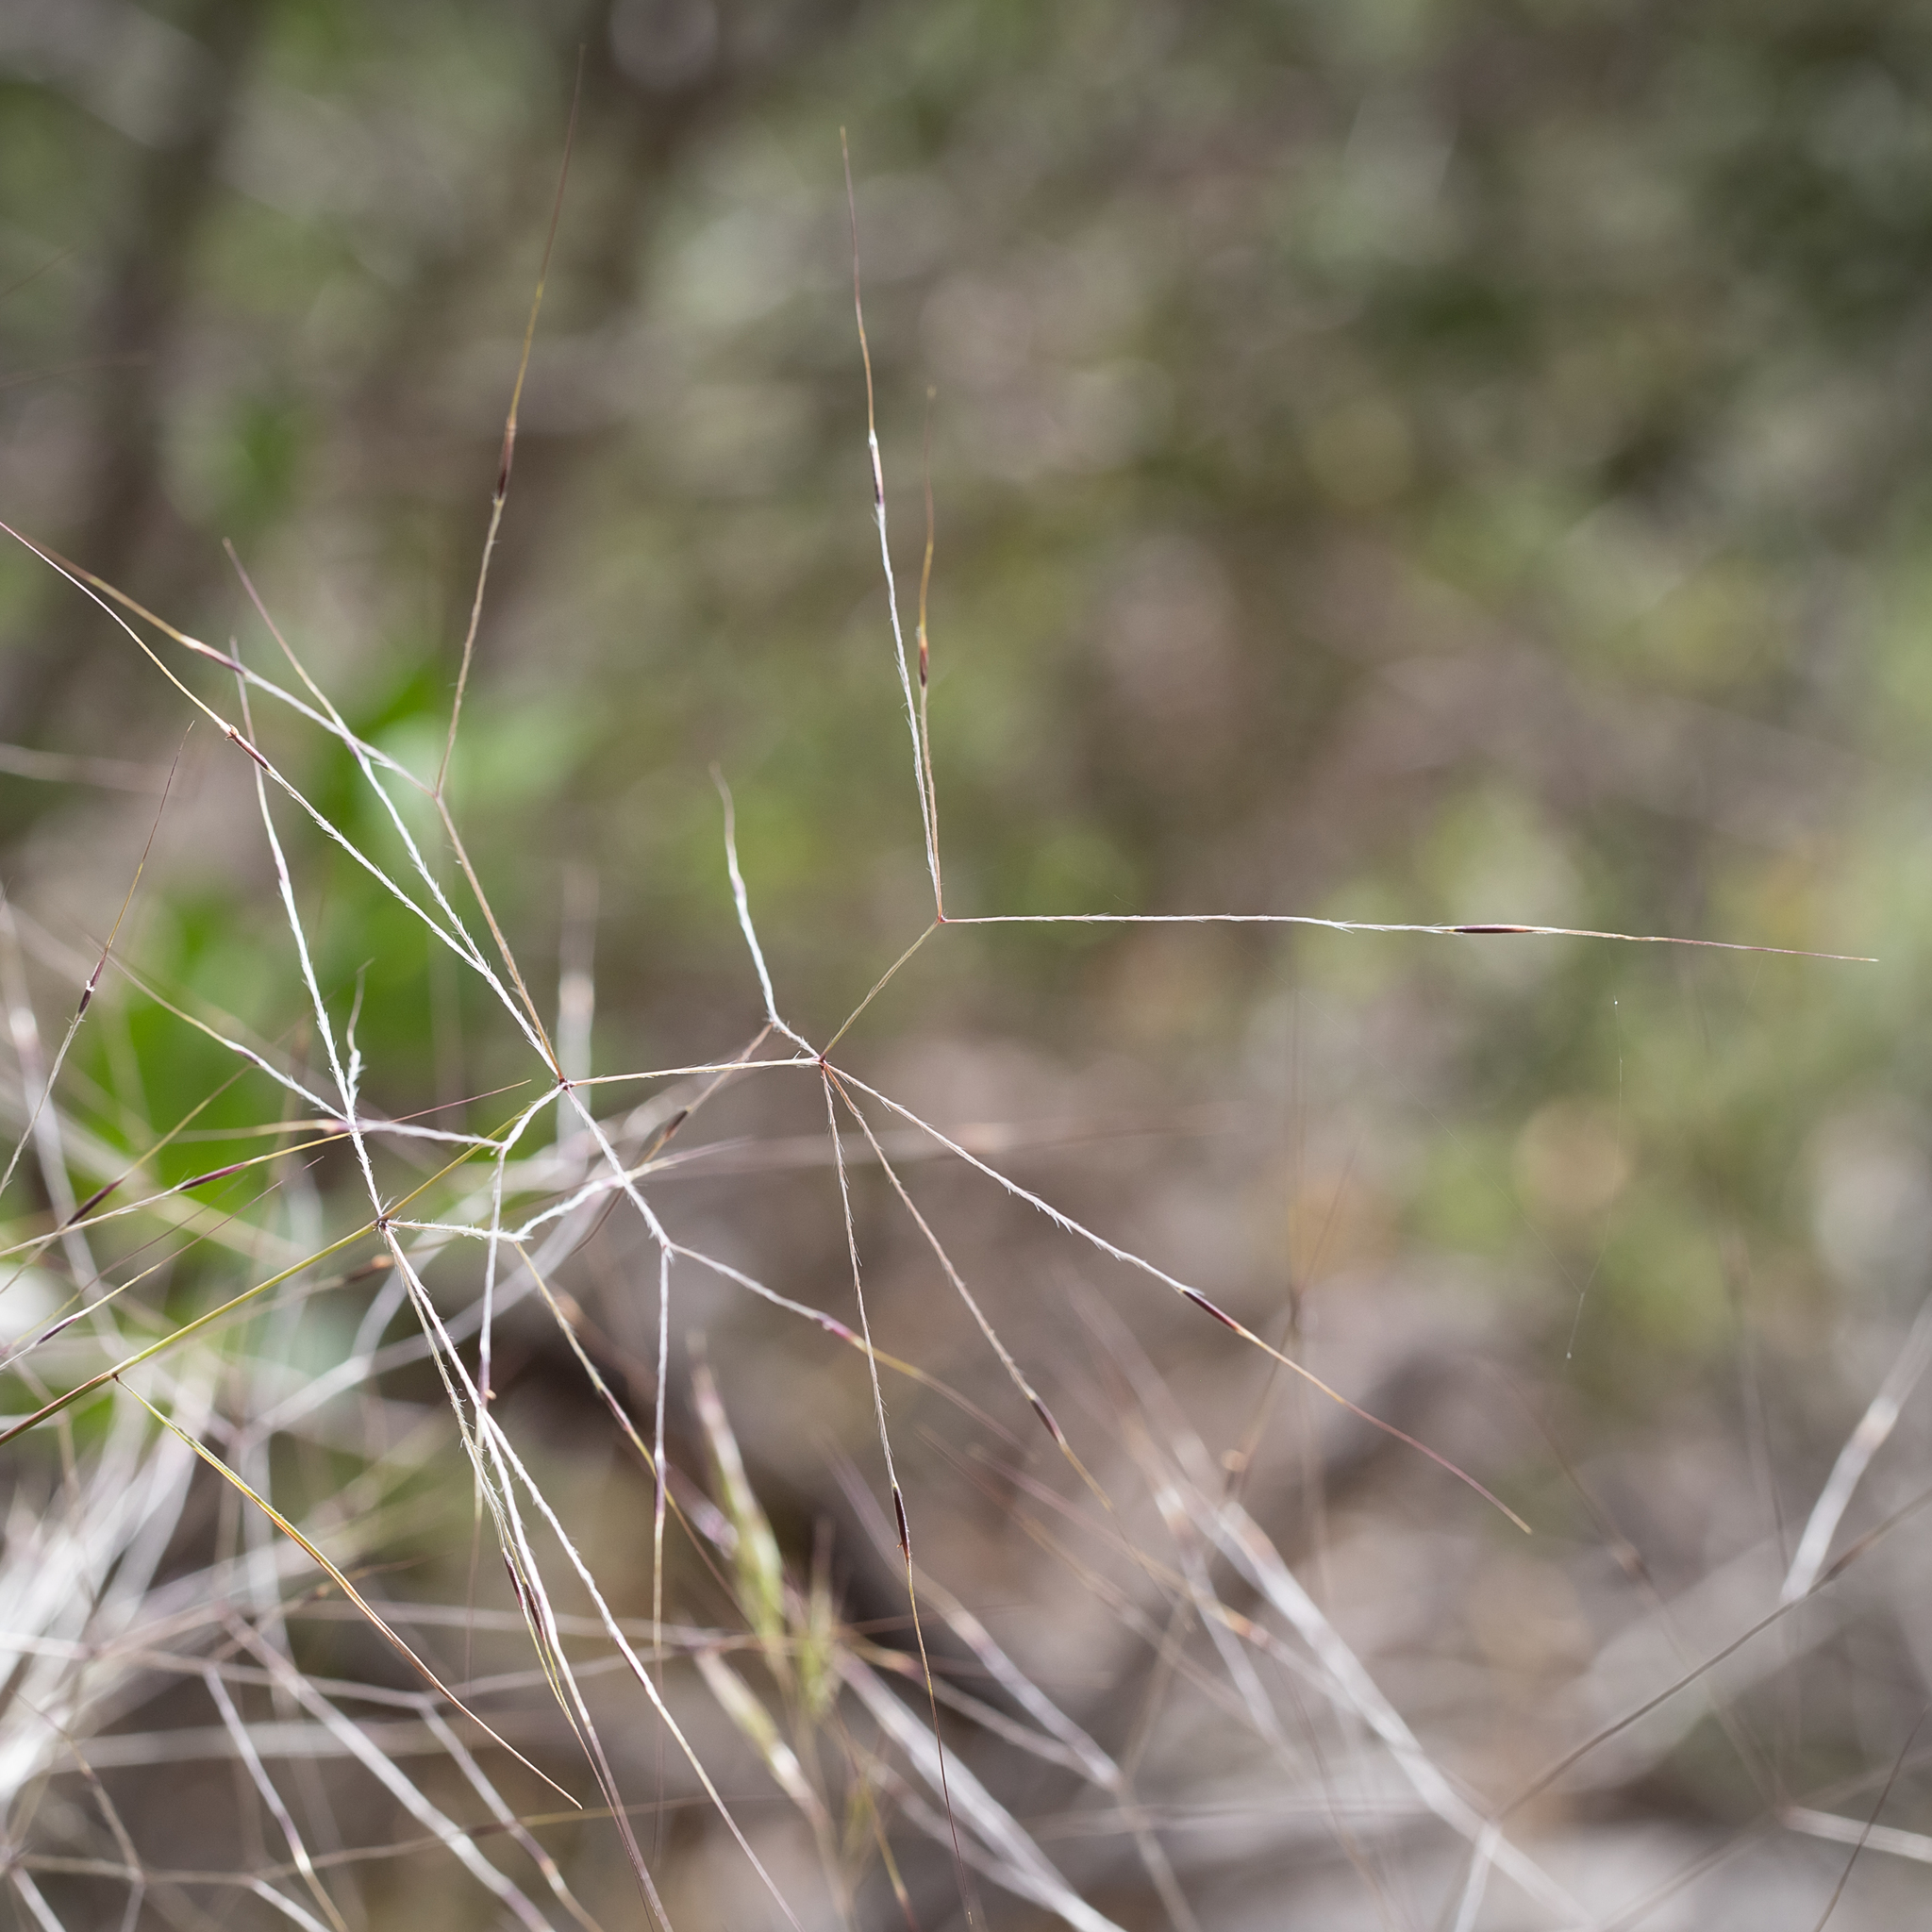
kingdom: Plantae
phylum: Tracheophyta
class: Liliopsida
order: Poales
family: Poaceae
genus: Austrostipa
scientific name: Austrostipa elegantissima
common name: Feather spear grass
